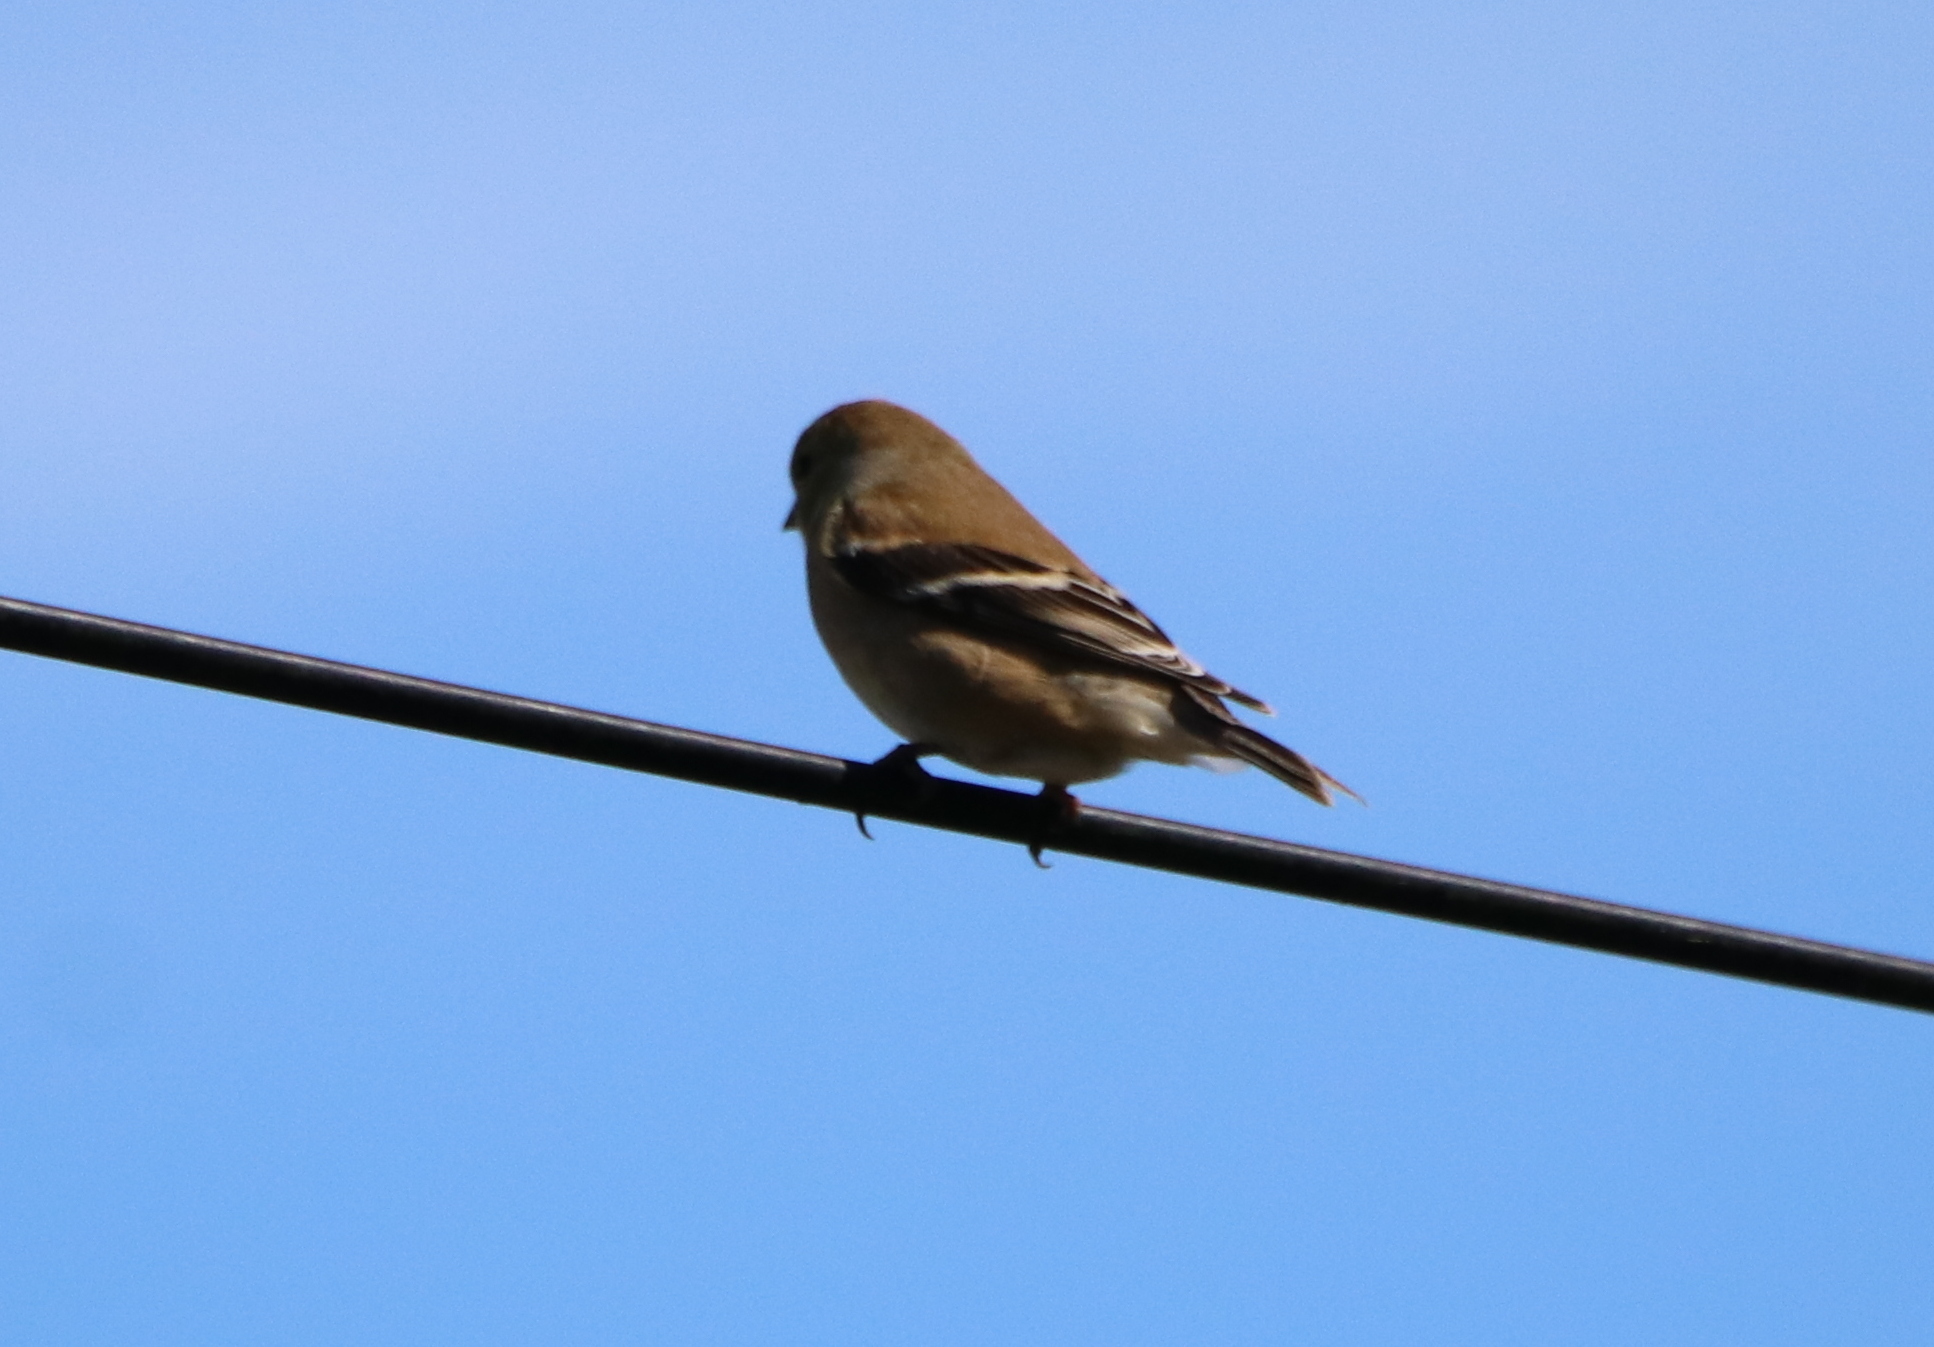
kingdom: Animalia
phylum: Chordata
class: Aves
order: Passeriformes
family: Fringillidae
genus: Spinus
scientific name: Spinus tristis
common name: American goldfinch
